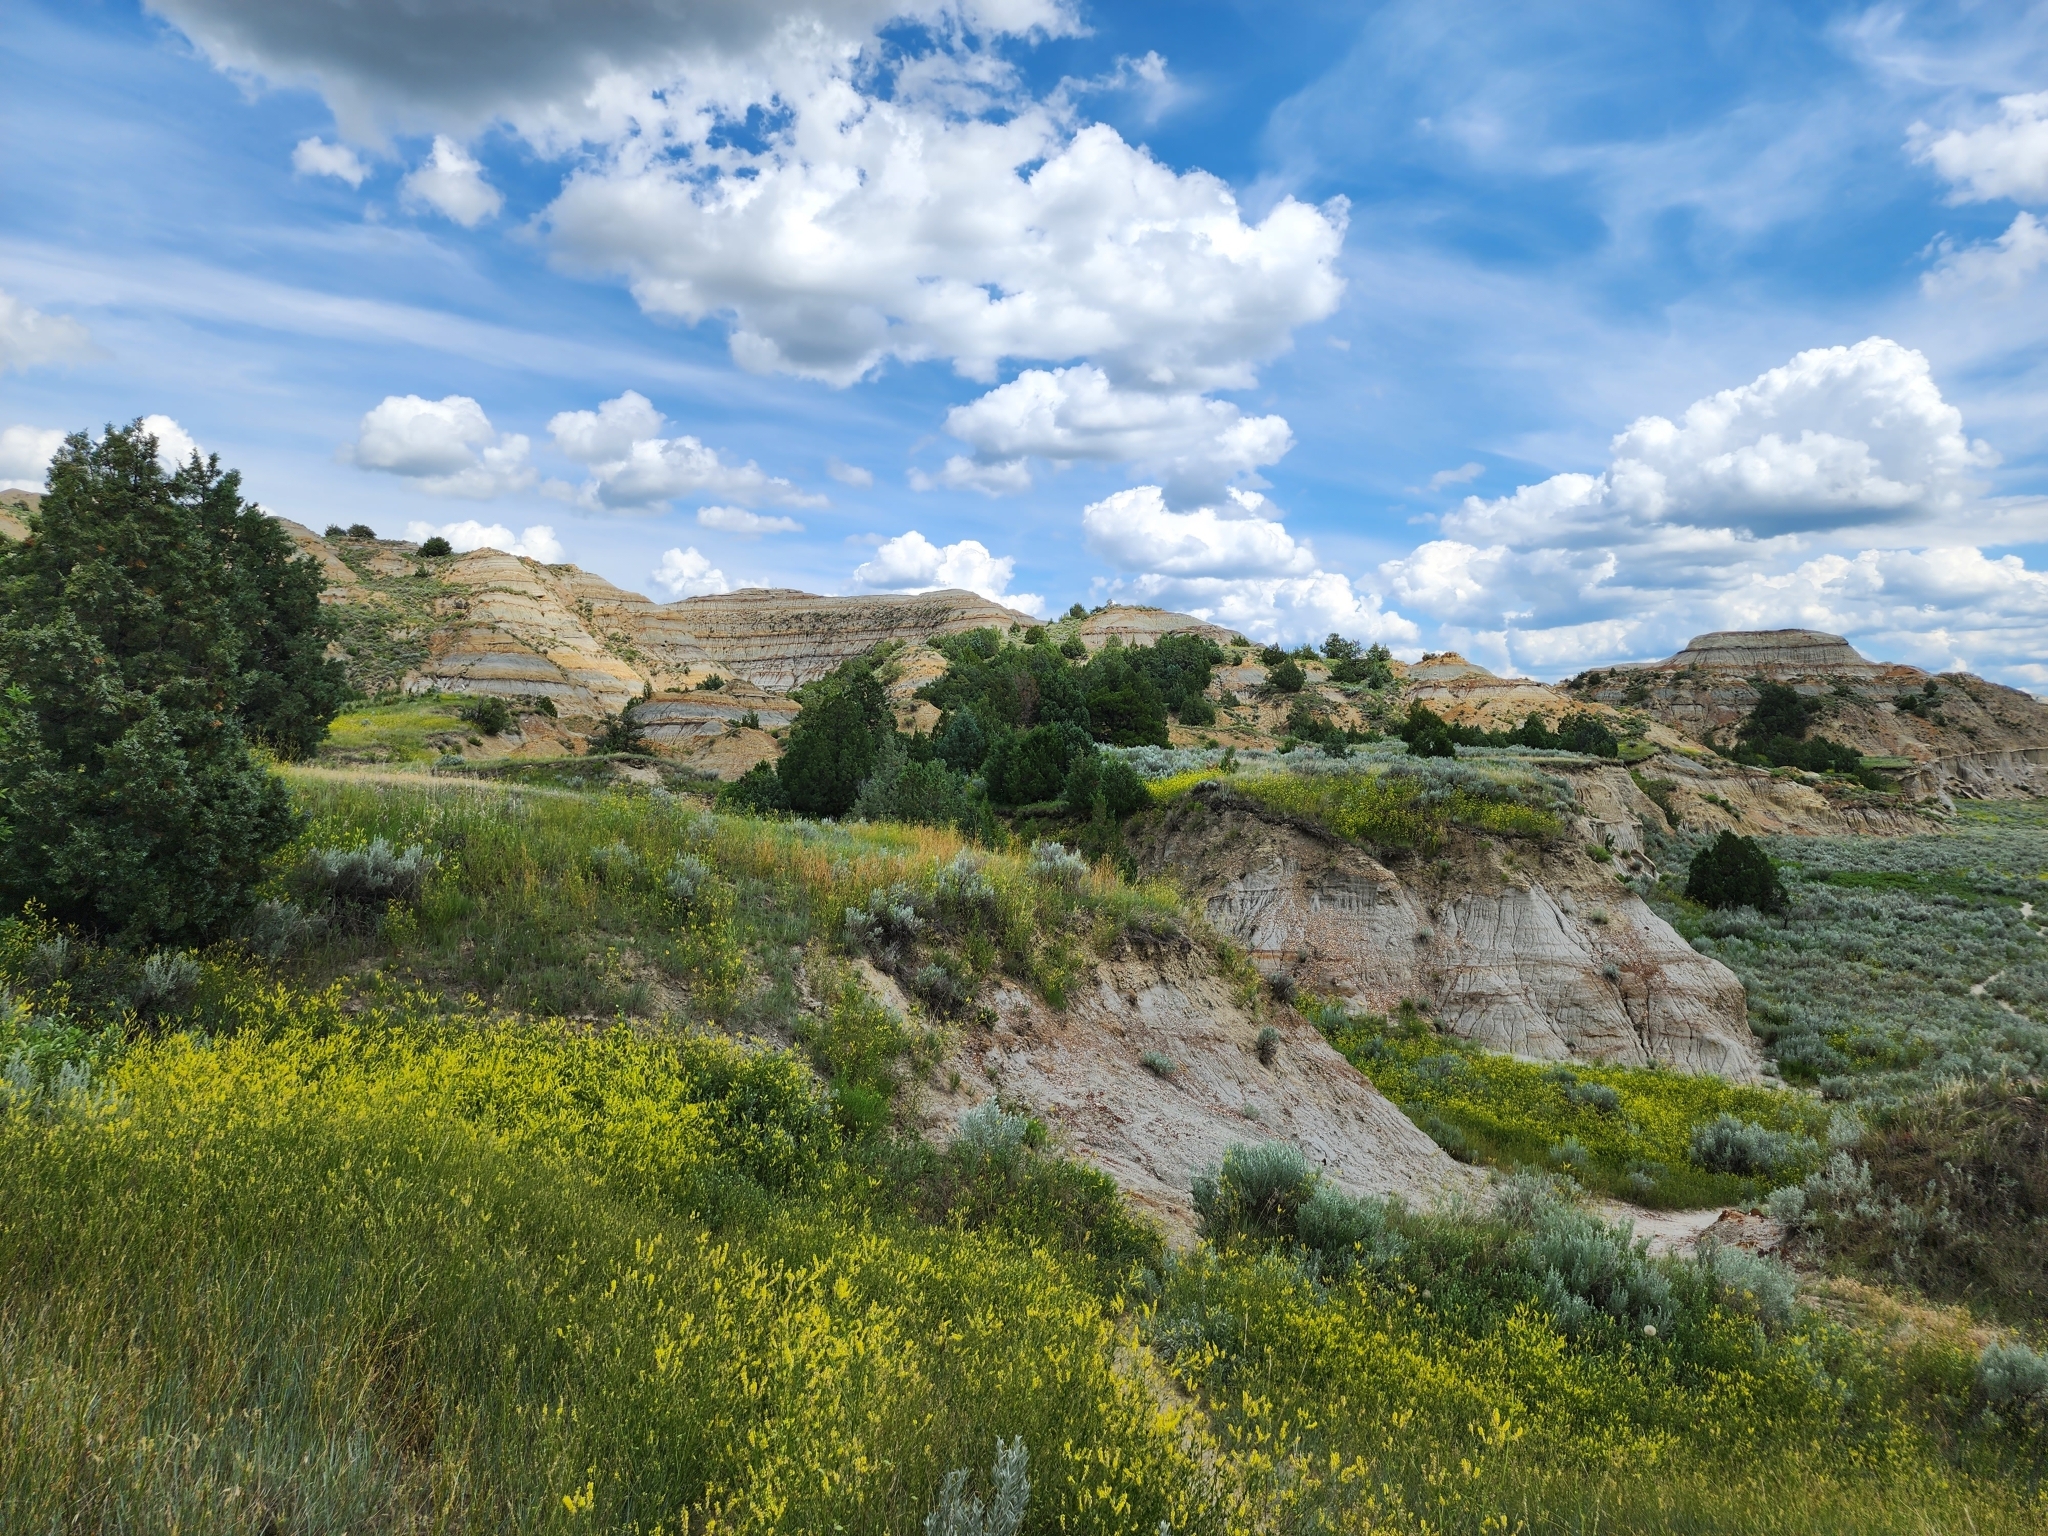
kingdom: Plantae
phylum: Tracheophyta
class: Magnoliopsida
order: Fabales
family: Fabaceae
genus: Melilotus
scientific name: Melilotus officinalis
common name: Sweetclover
